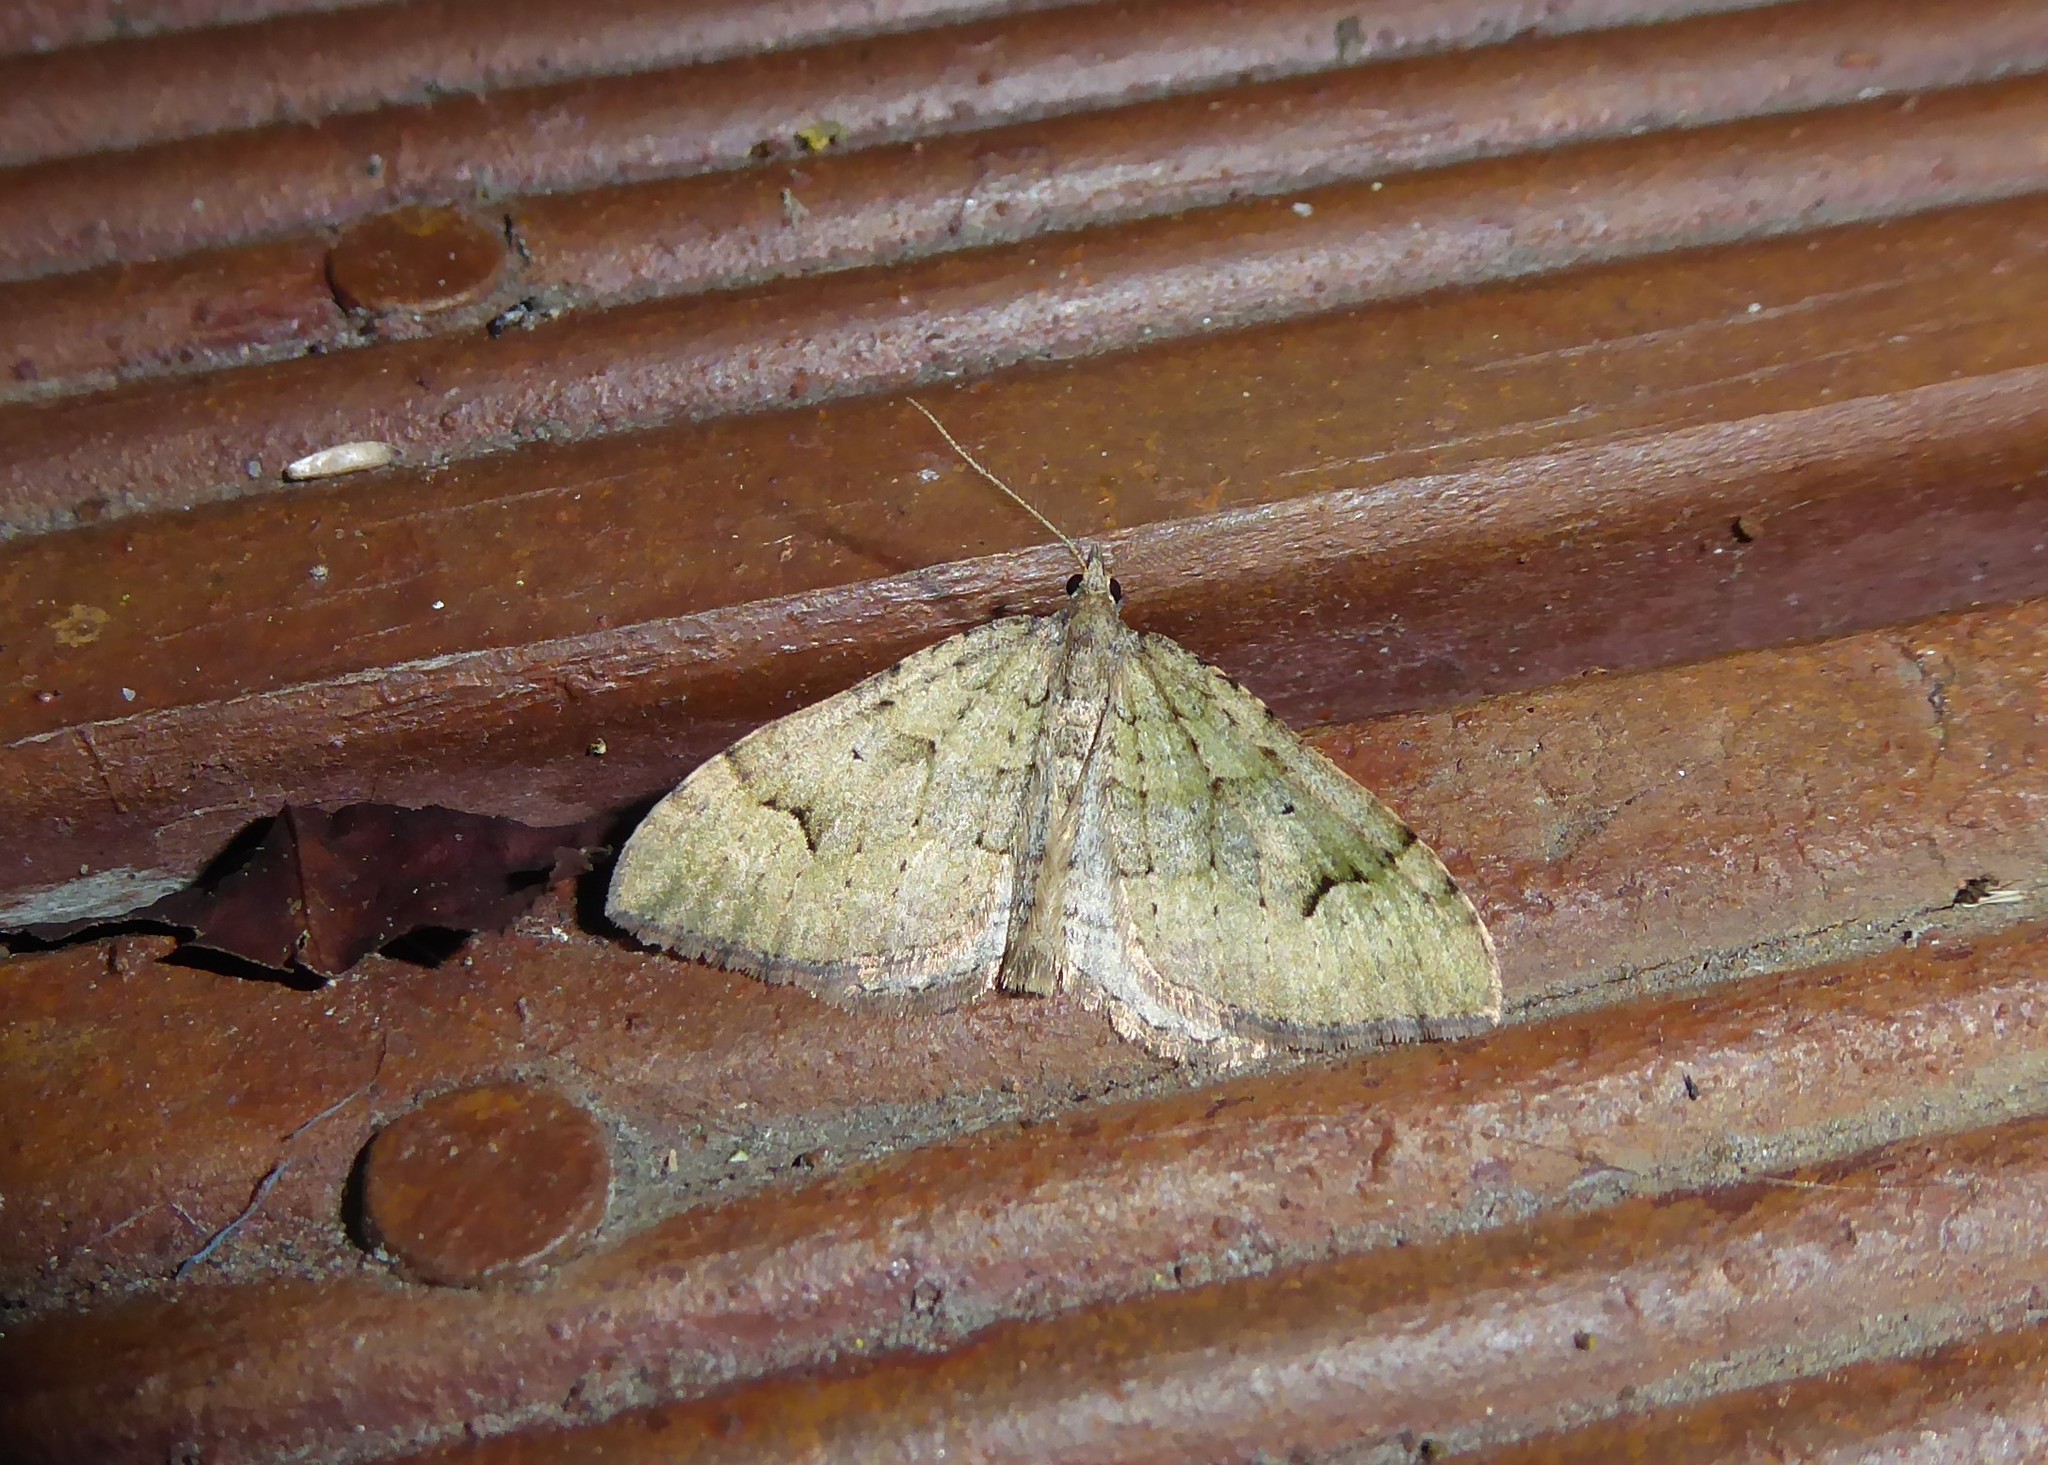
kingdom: Animalia
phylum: Arthropoda
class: Insecta
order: Lepidoptera
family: Geometridae
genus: Epyaxa
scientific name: Epyaxa rosearia
